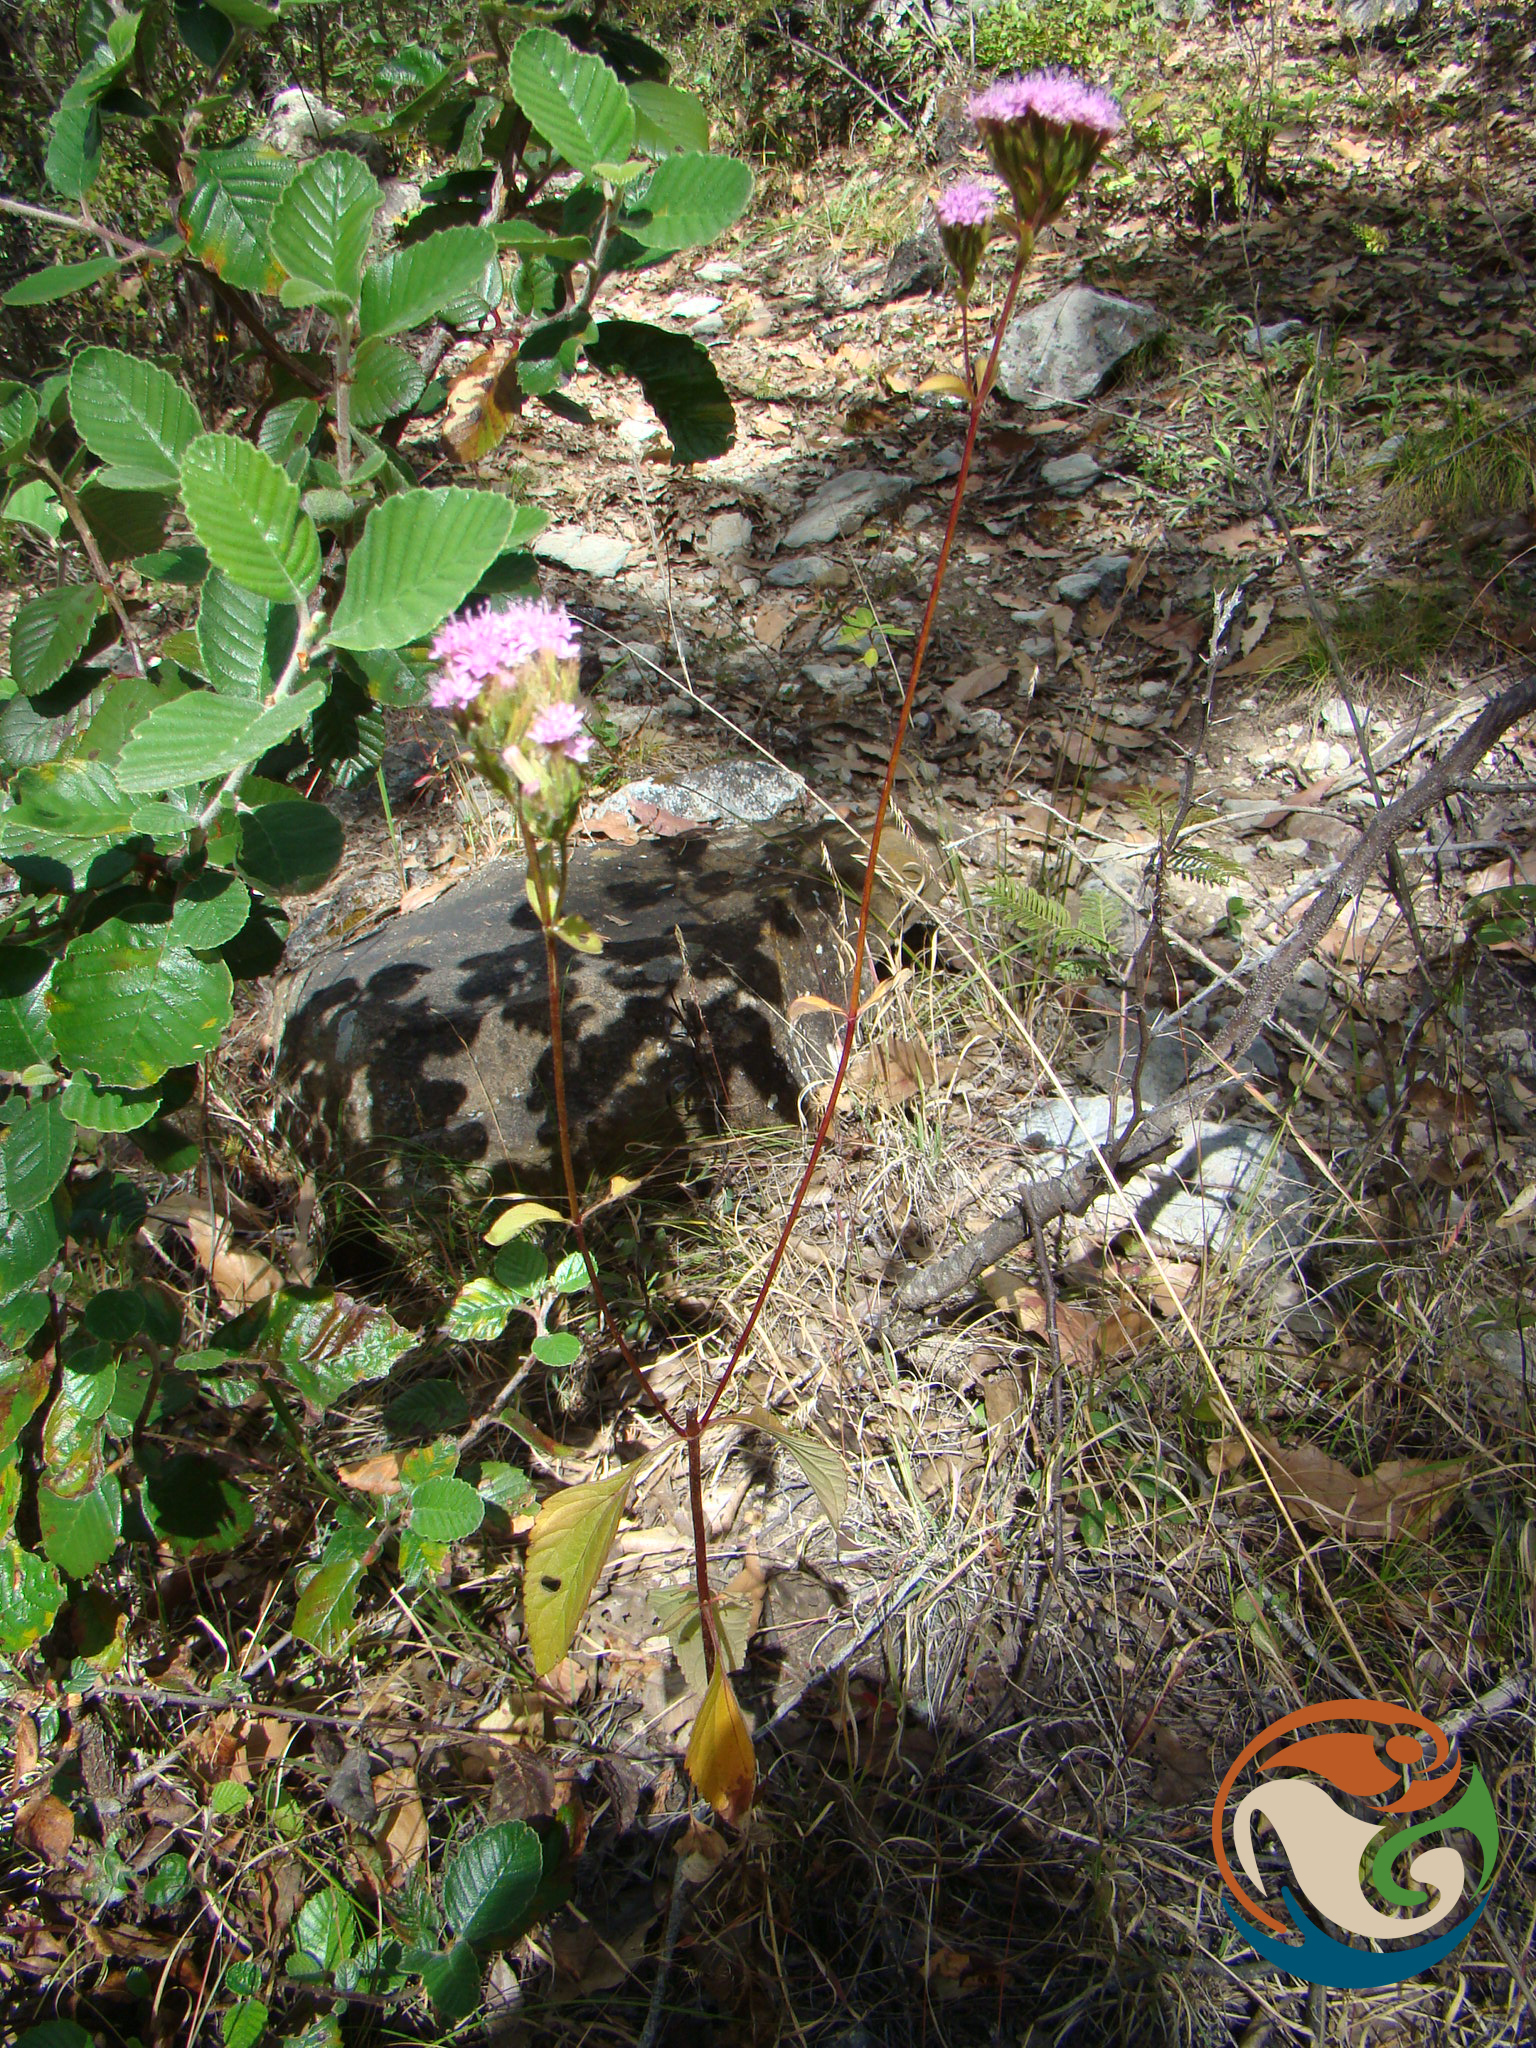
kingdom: Plantae
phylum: Tracheophyta
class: Magnoliopsida
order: Asterales
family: Asteraceae
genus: Stevia
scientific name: Stevia caracasana
